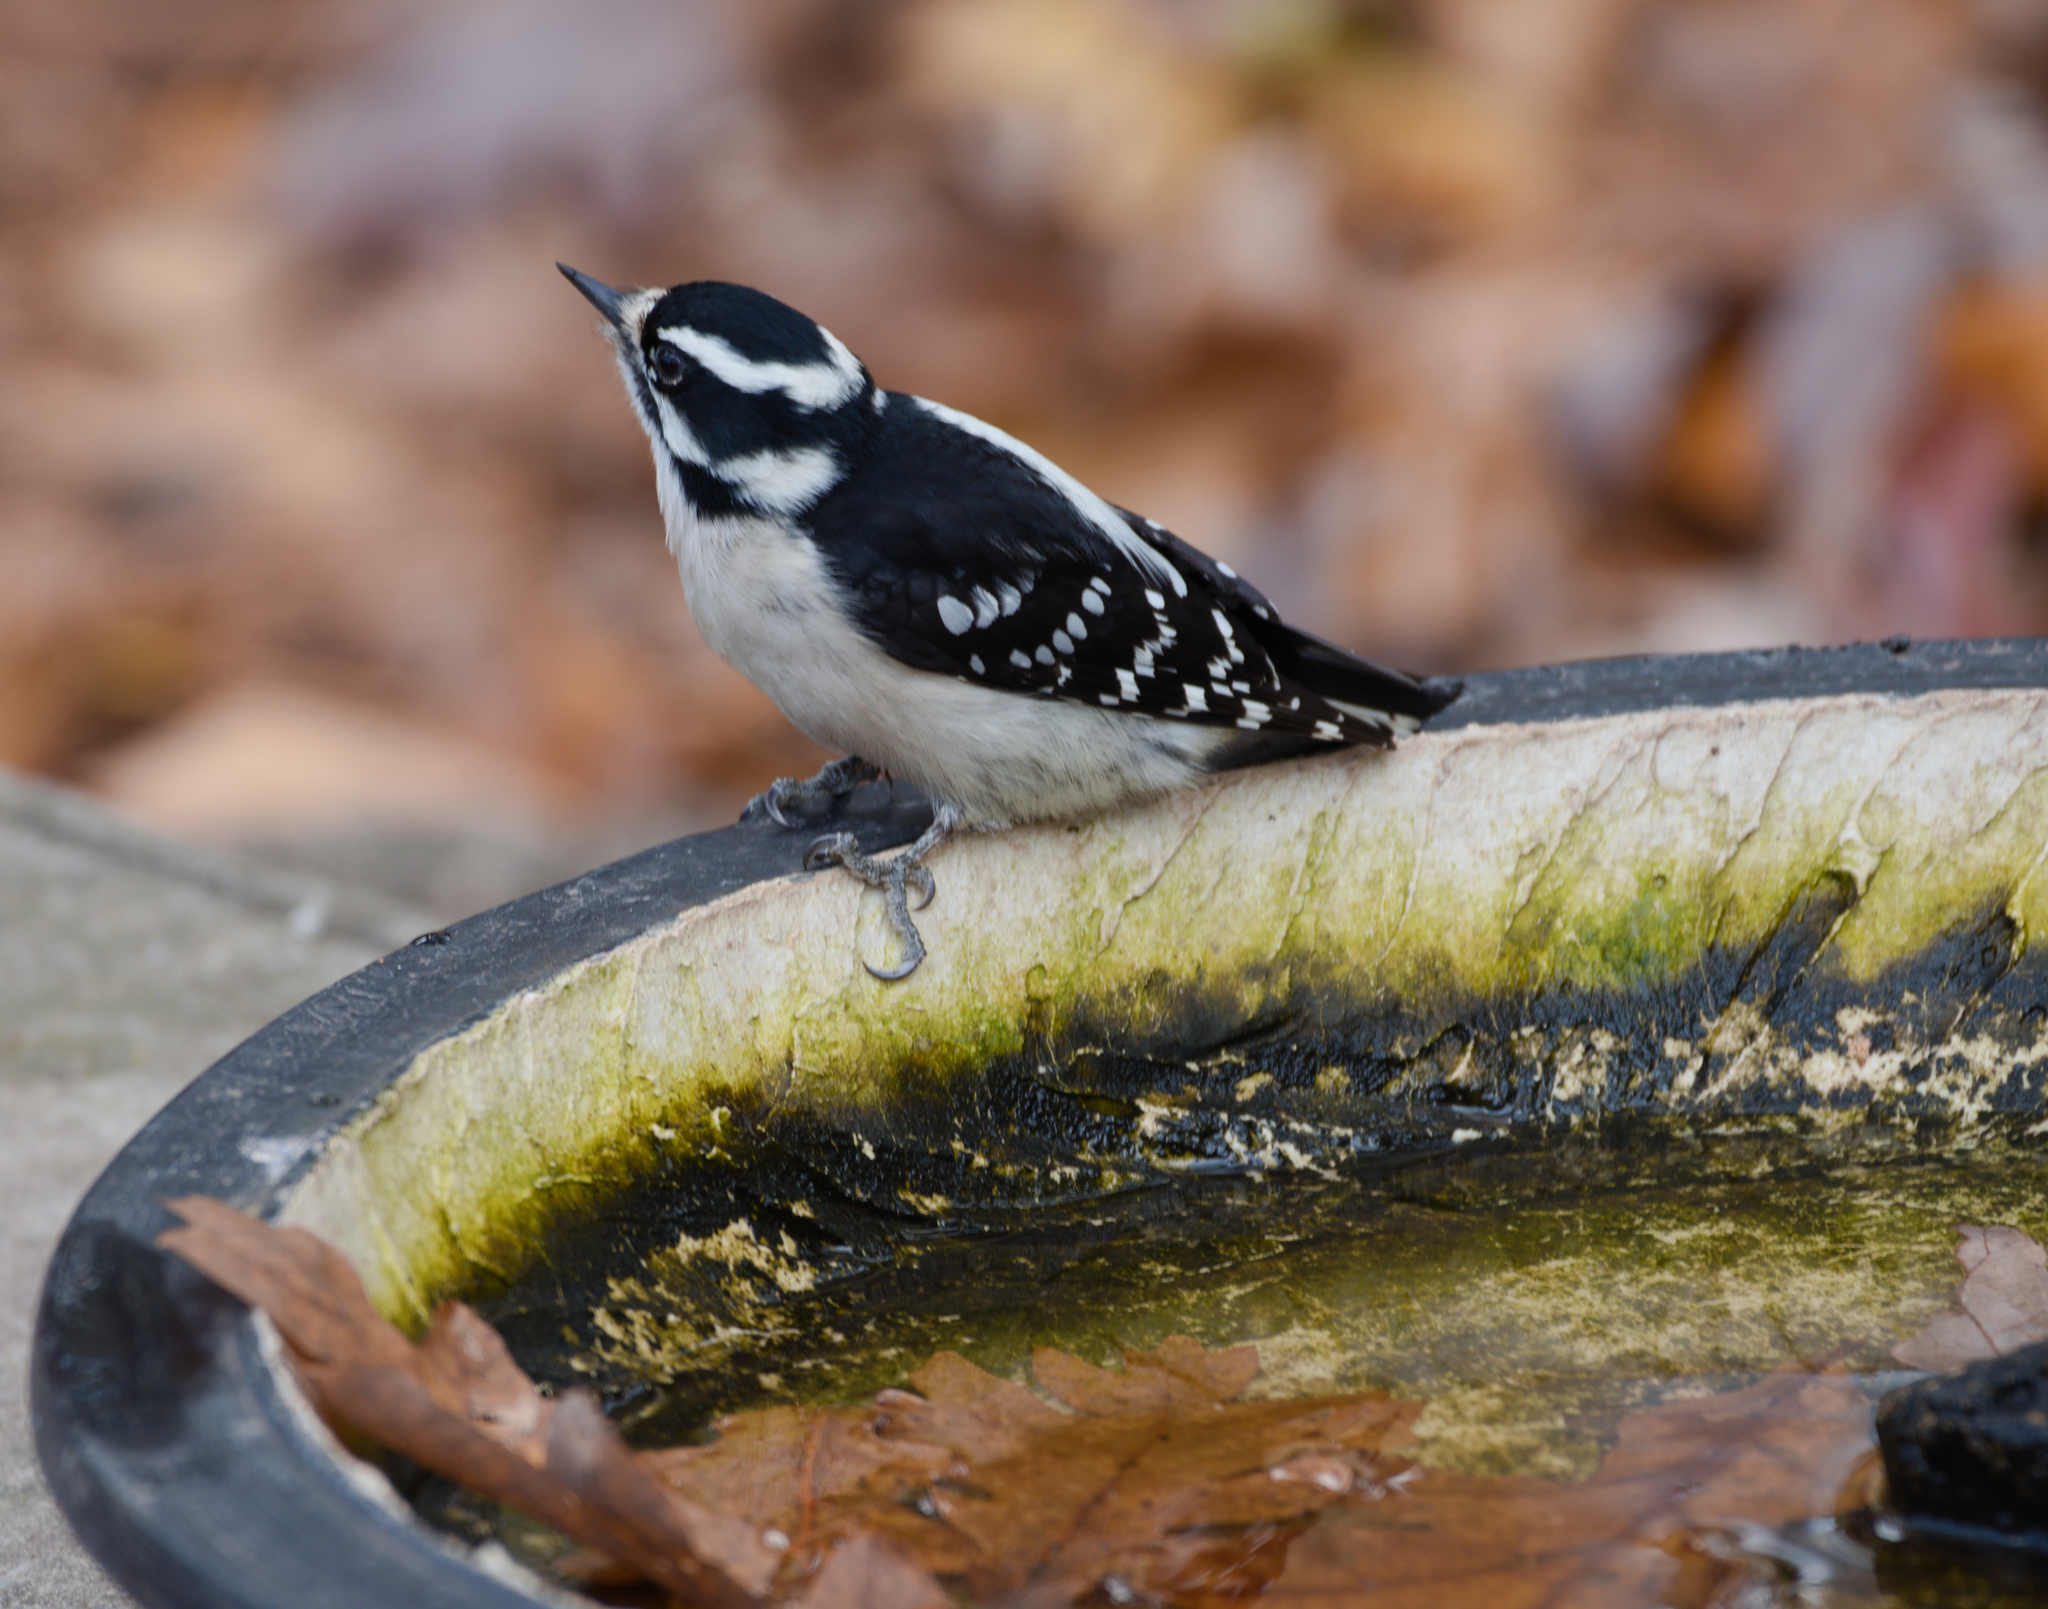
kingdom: Animalia
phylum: Chordata
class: Aves
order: Piciformes
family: Picidae
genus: Dryobates
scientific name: Dryobates pubescens
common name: Downy woodpecker
